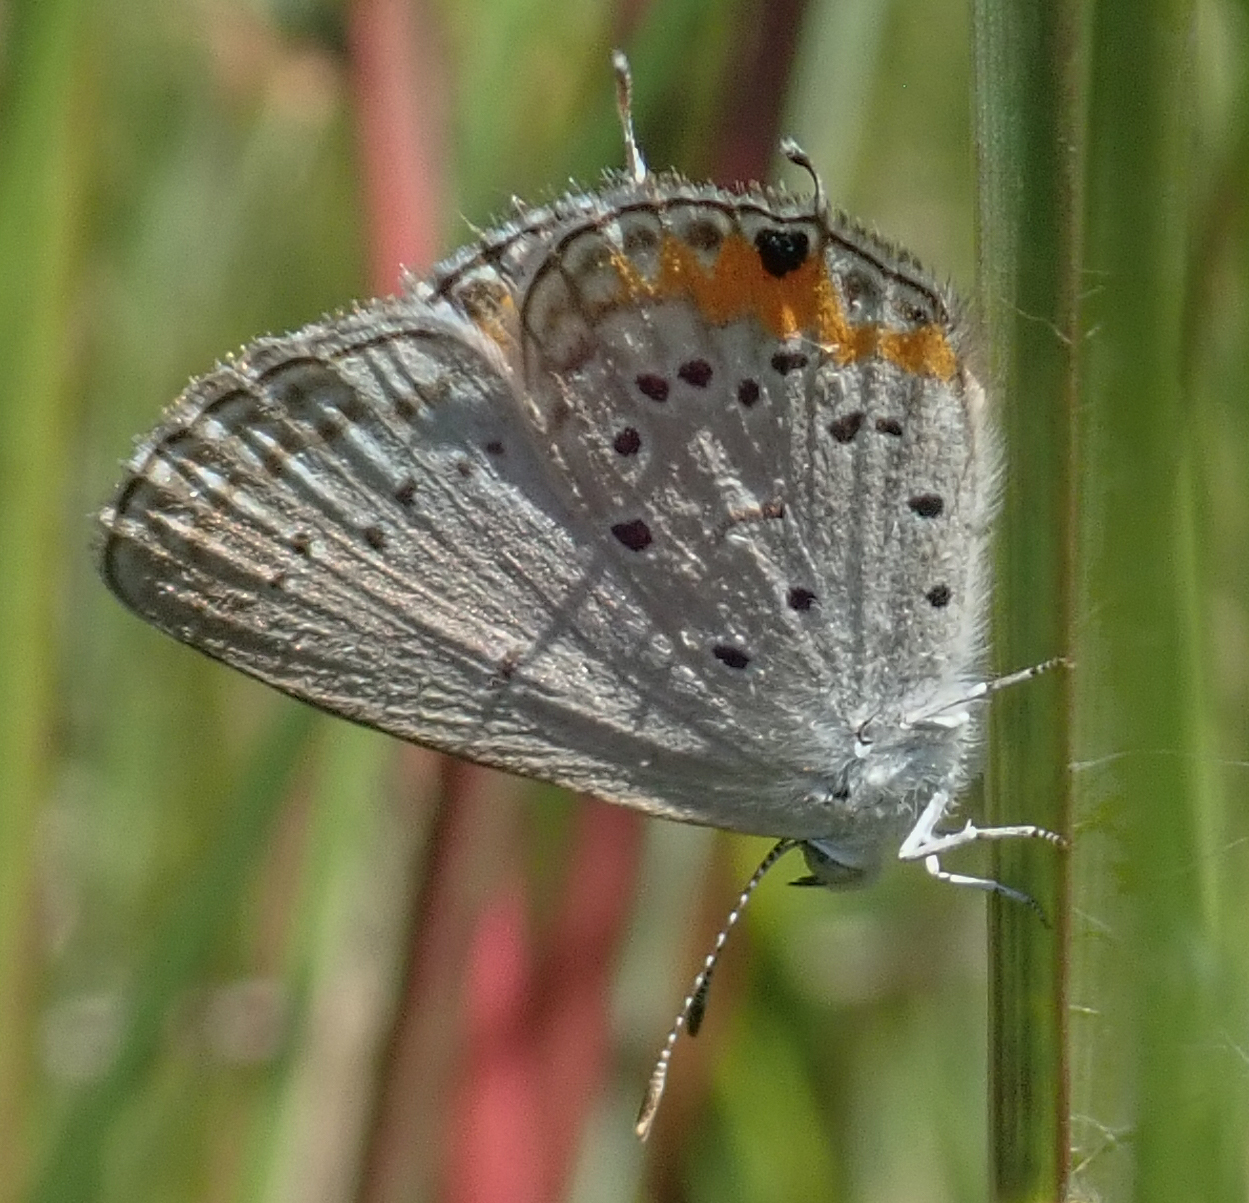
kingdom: Animalia
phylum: Arthropoda
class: Insecta
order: Lepidoptera
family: Lycaenidae
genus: Cupidopsis
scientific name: Cupidopsis jobates
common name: Tailed meadow blue
